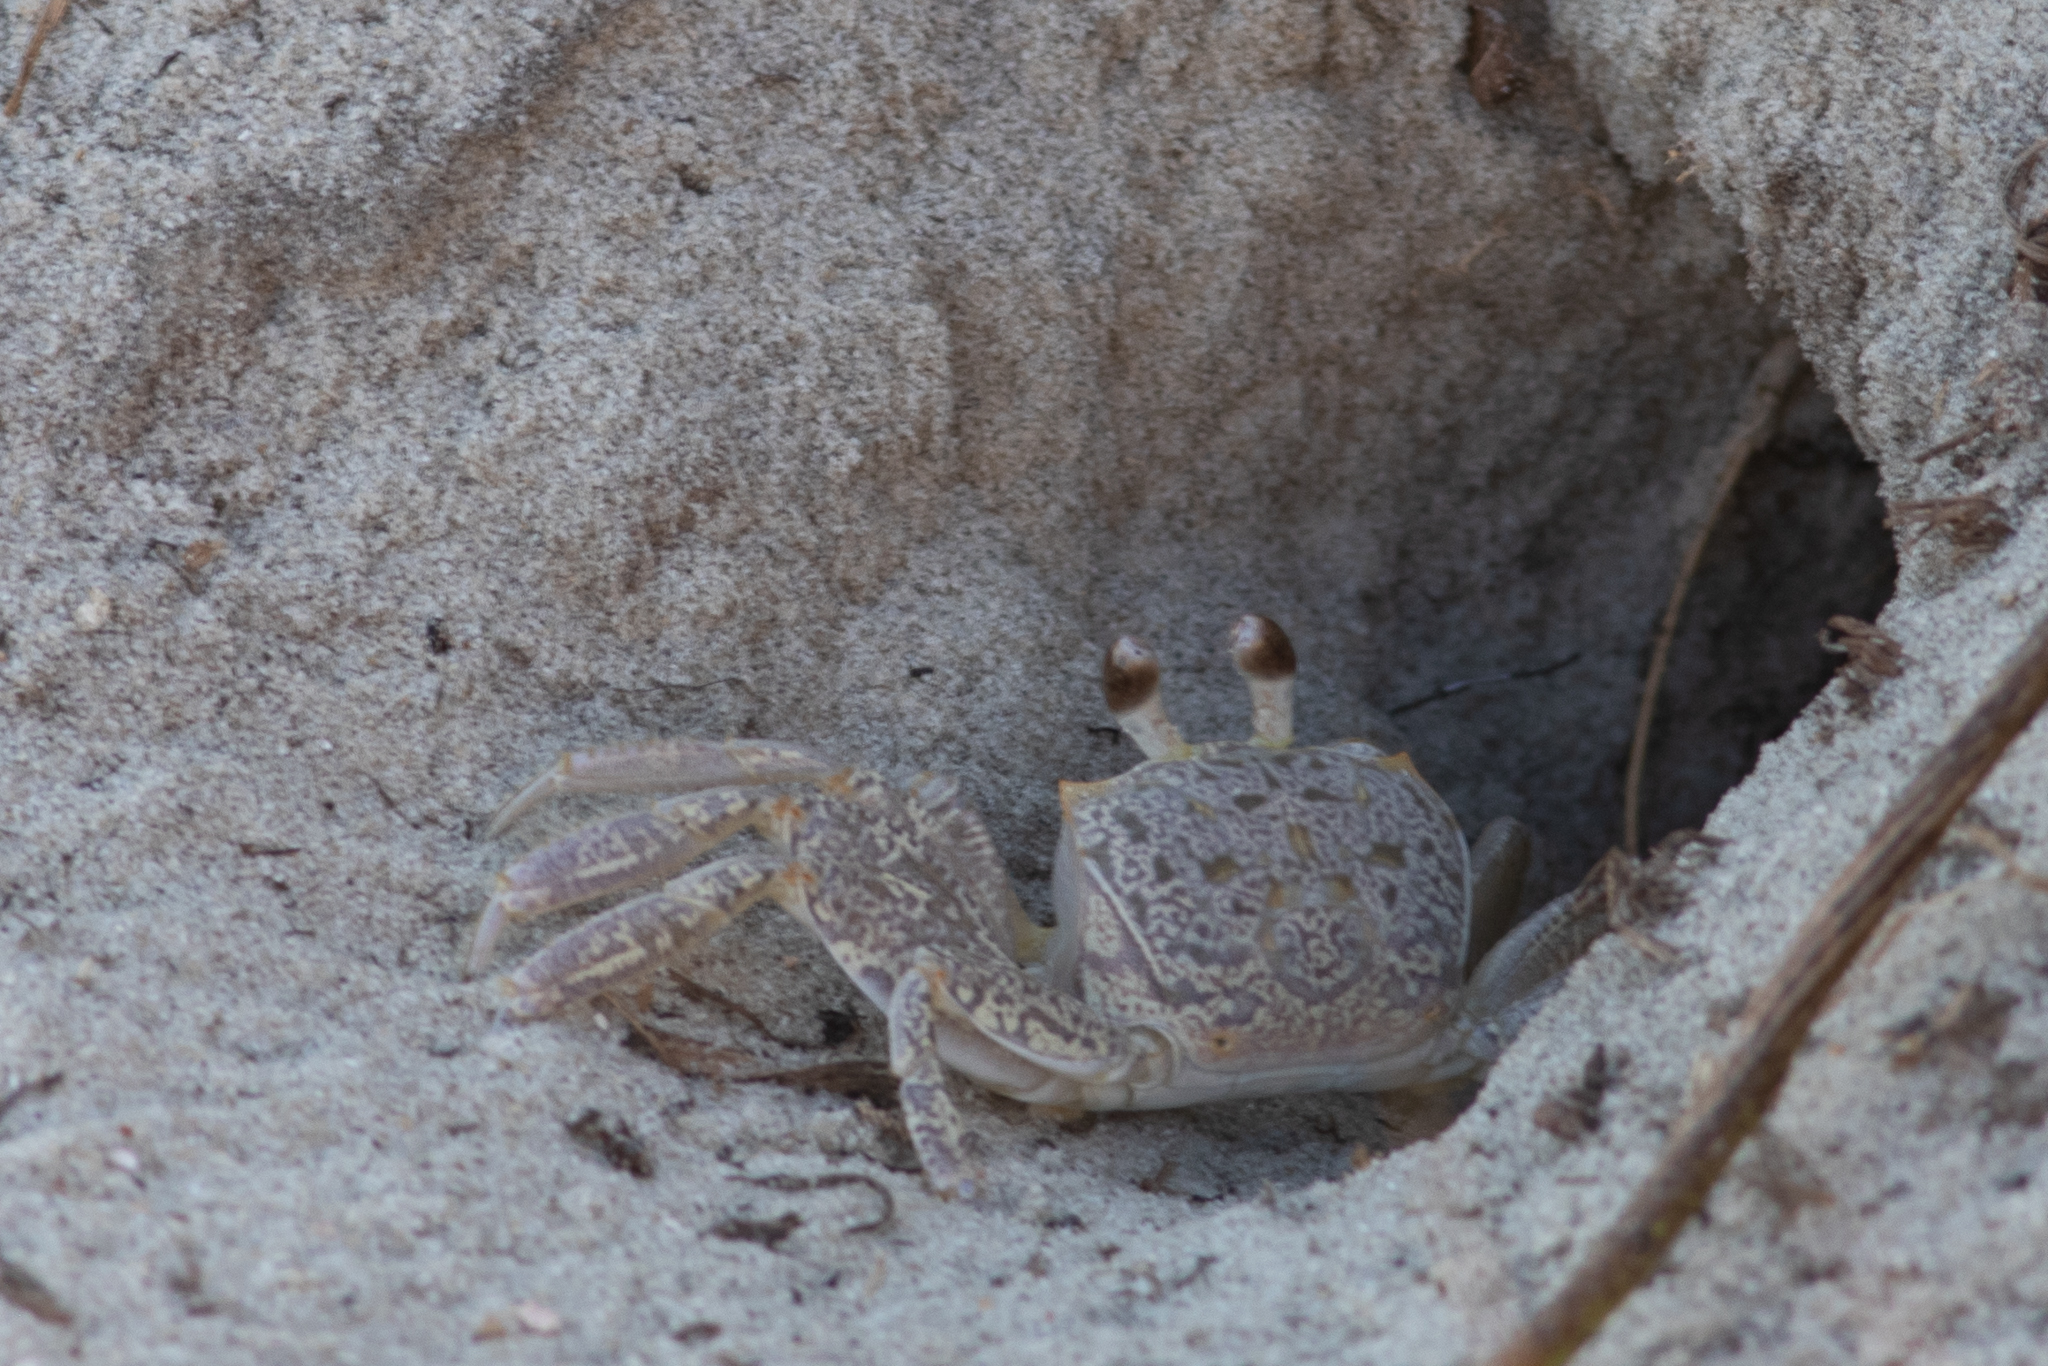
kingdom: Animalia
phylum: Arthropoda
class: Malacostraca
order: Decapoda
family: Ocypodidae
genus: Ocypode
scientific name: Ocypode quadrata
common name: Ghost crab
